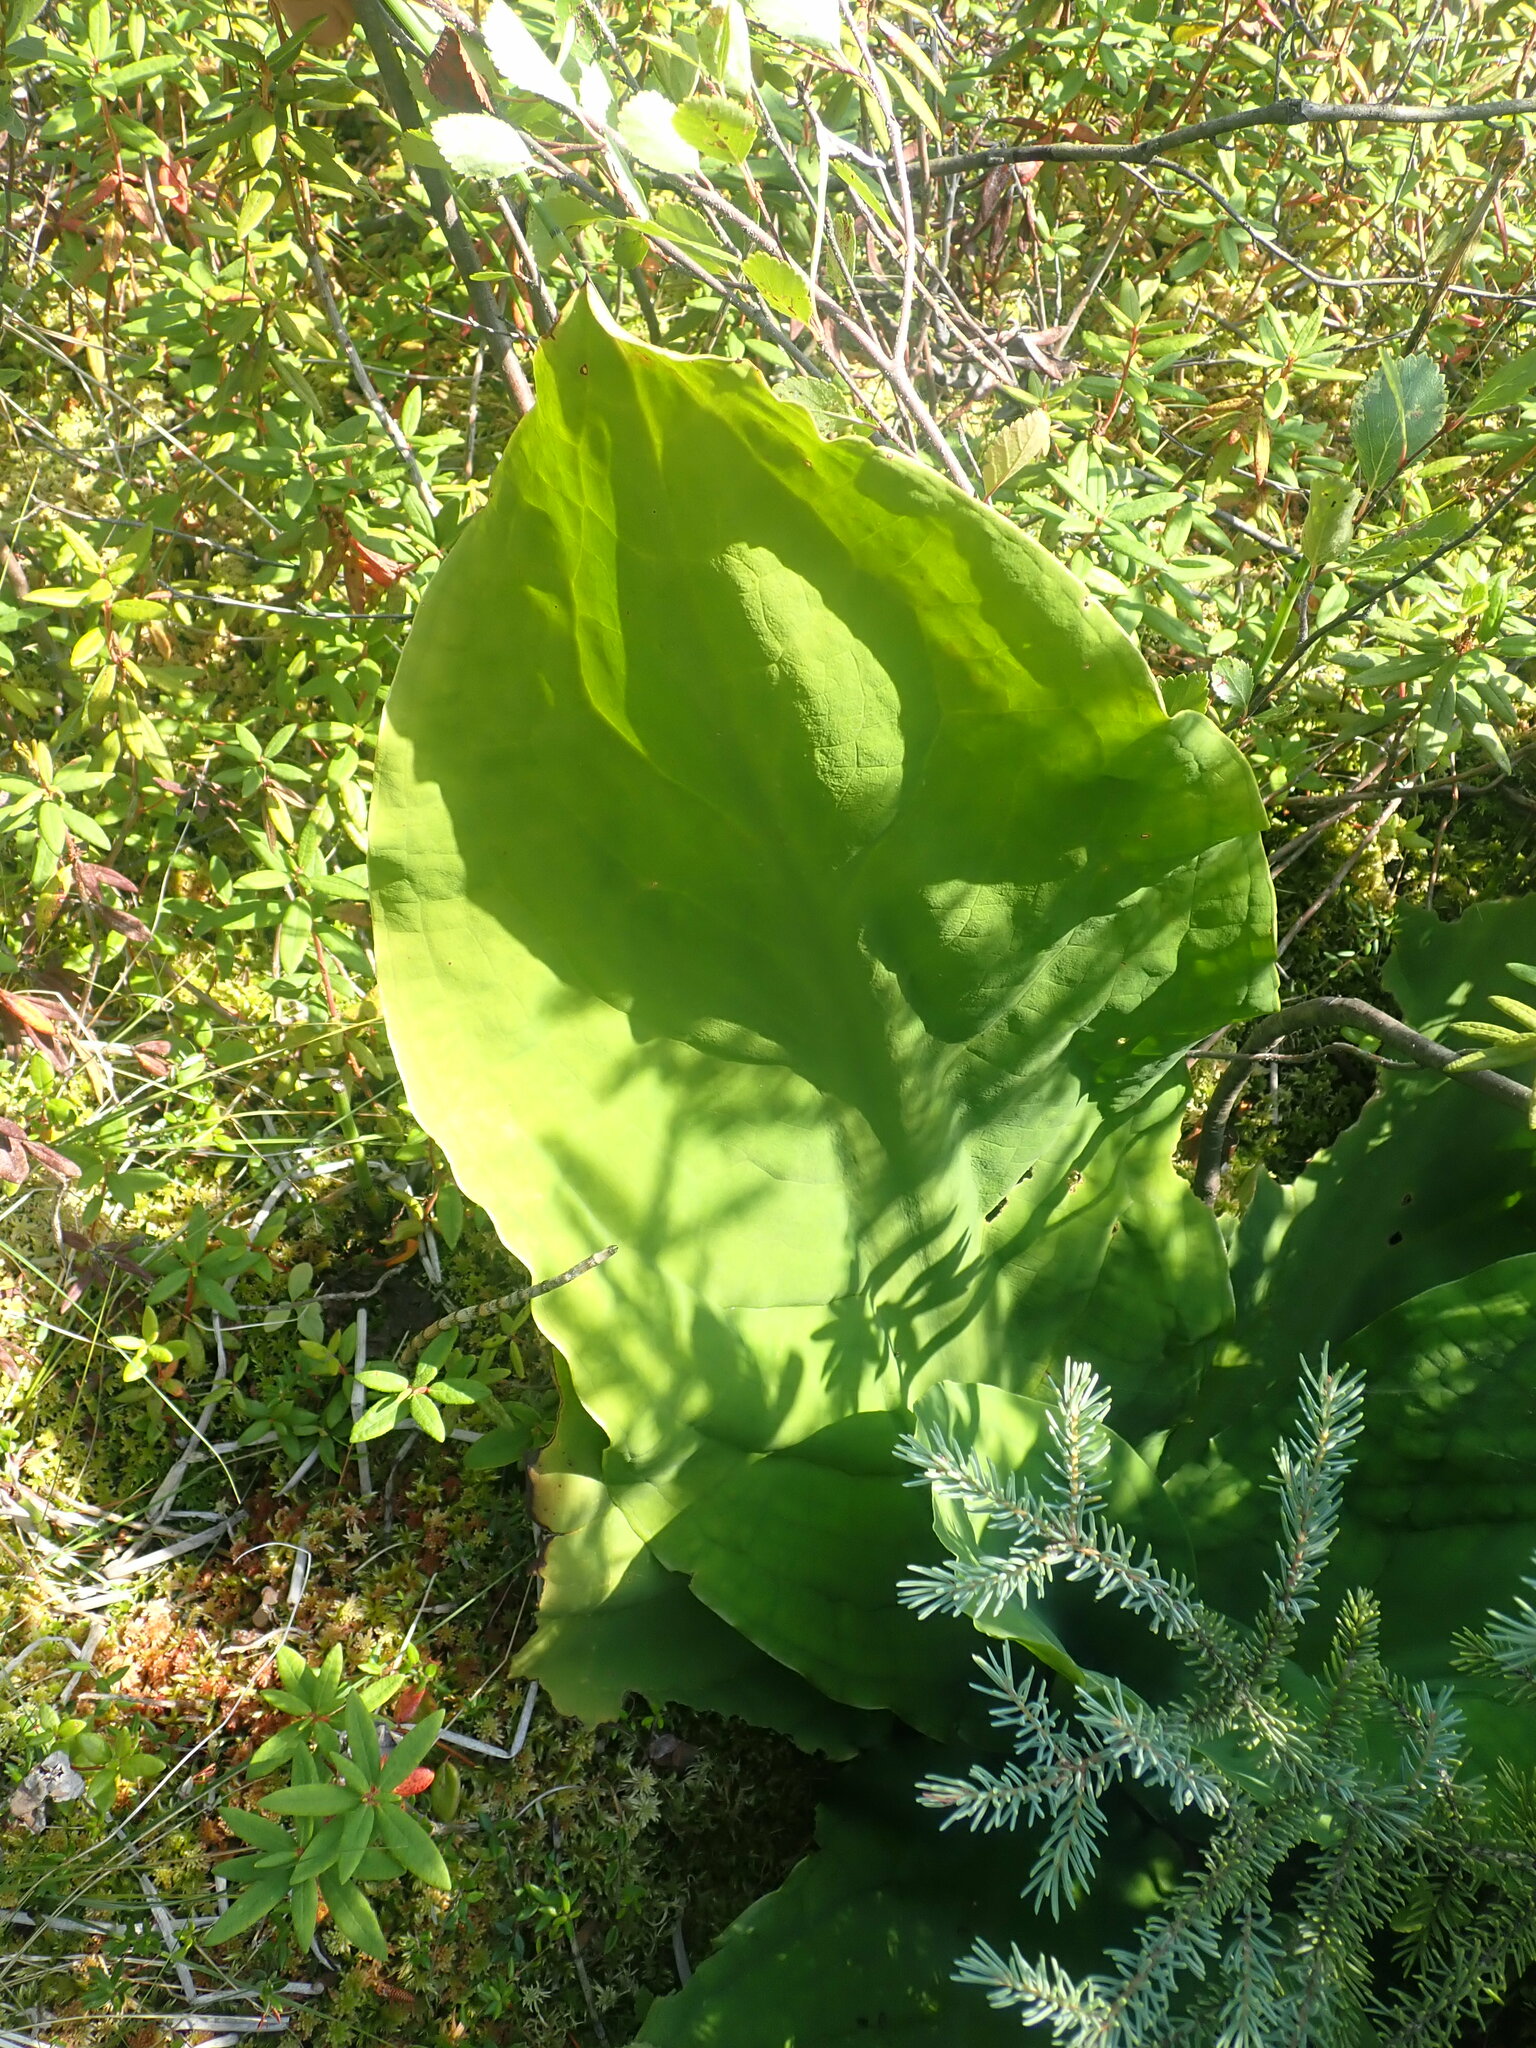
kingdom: Plantae
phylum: Tracheophyta
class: Liliopsida
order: Alismatales
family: Araceae
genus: Lysichiton
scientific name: Lysichiton americanus
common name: American skunk cabbage
